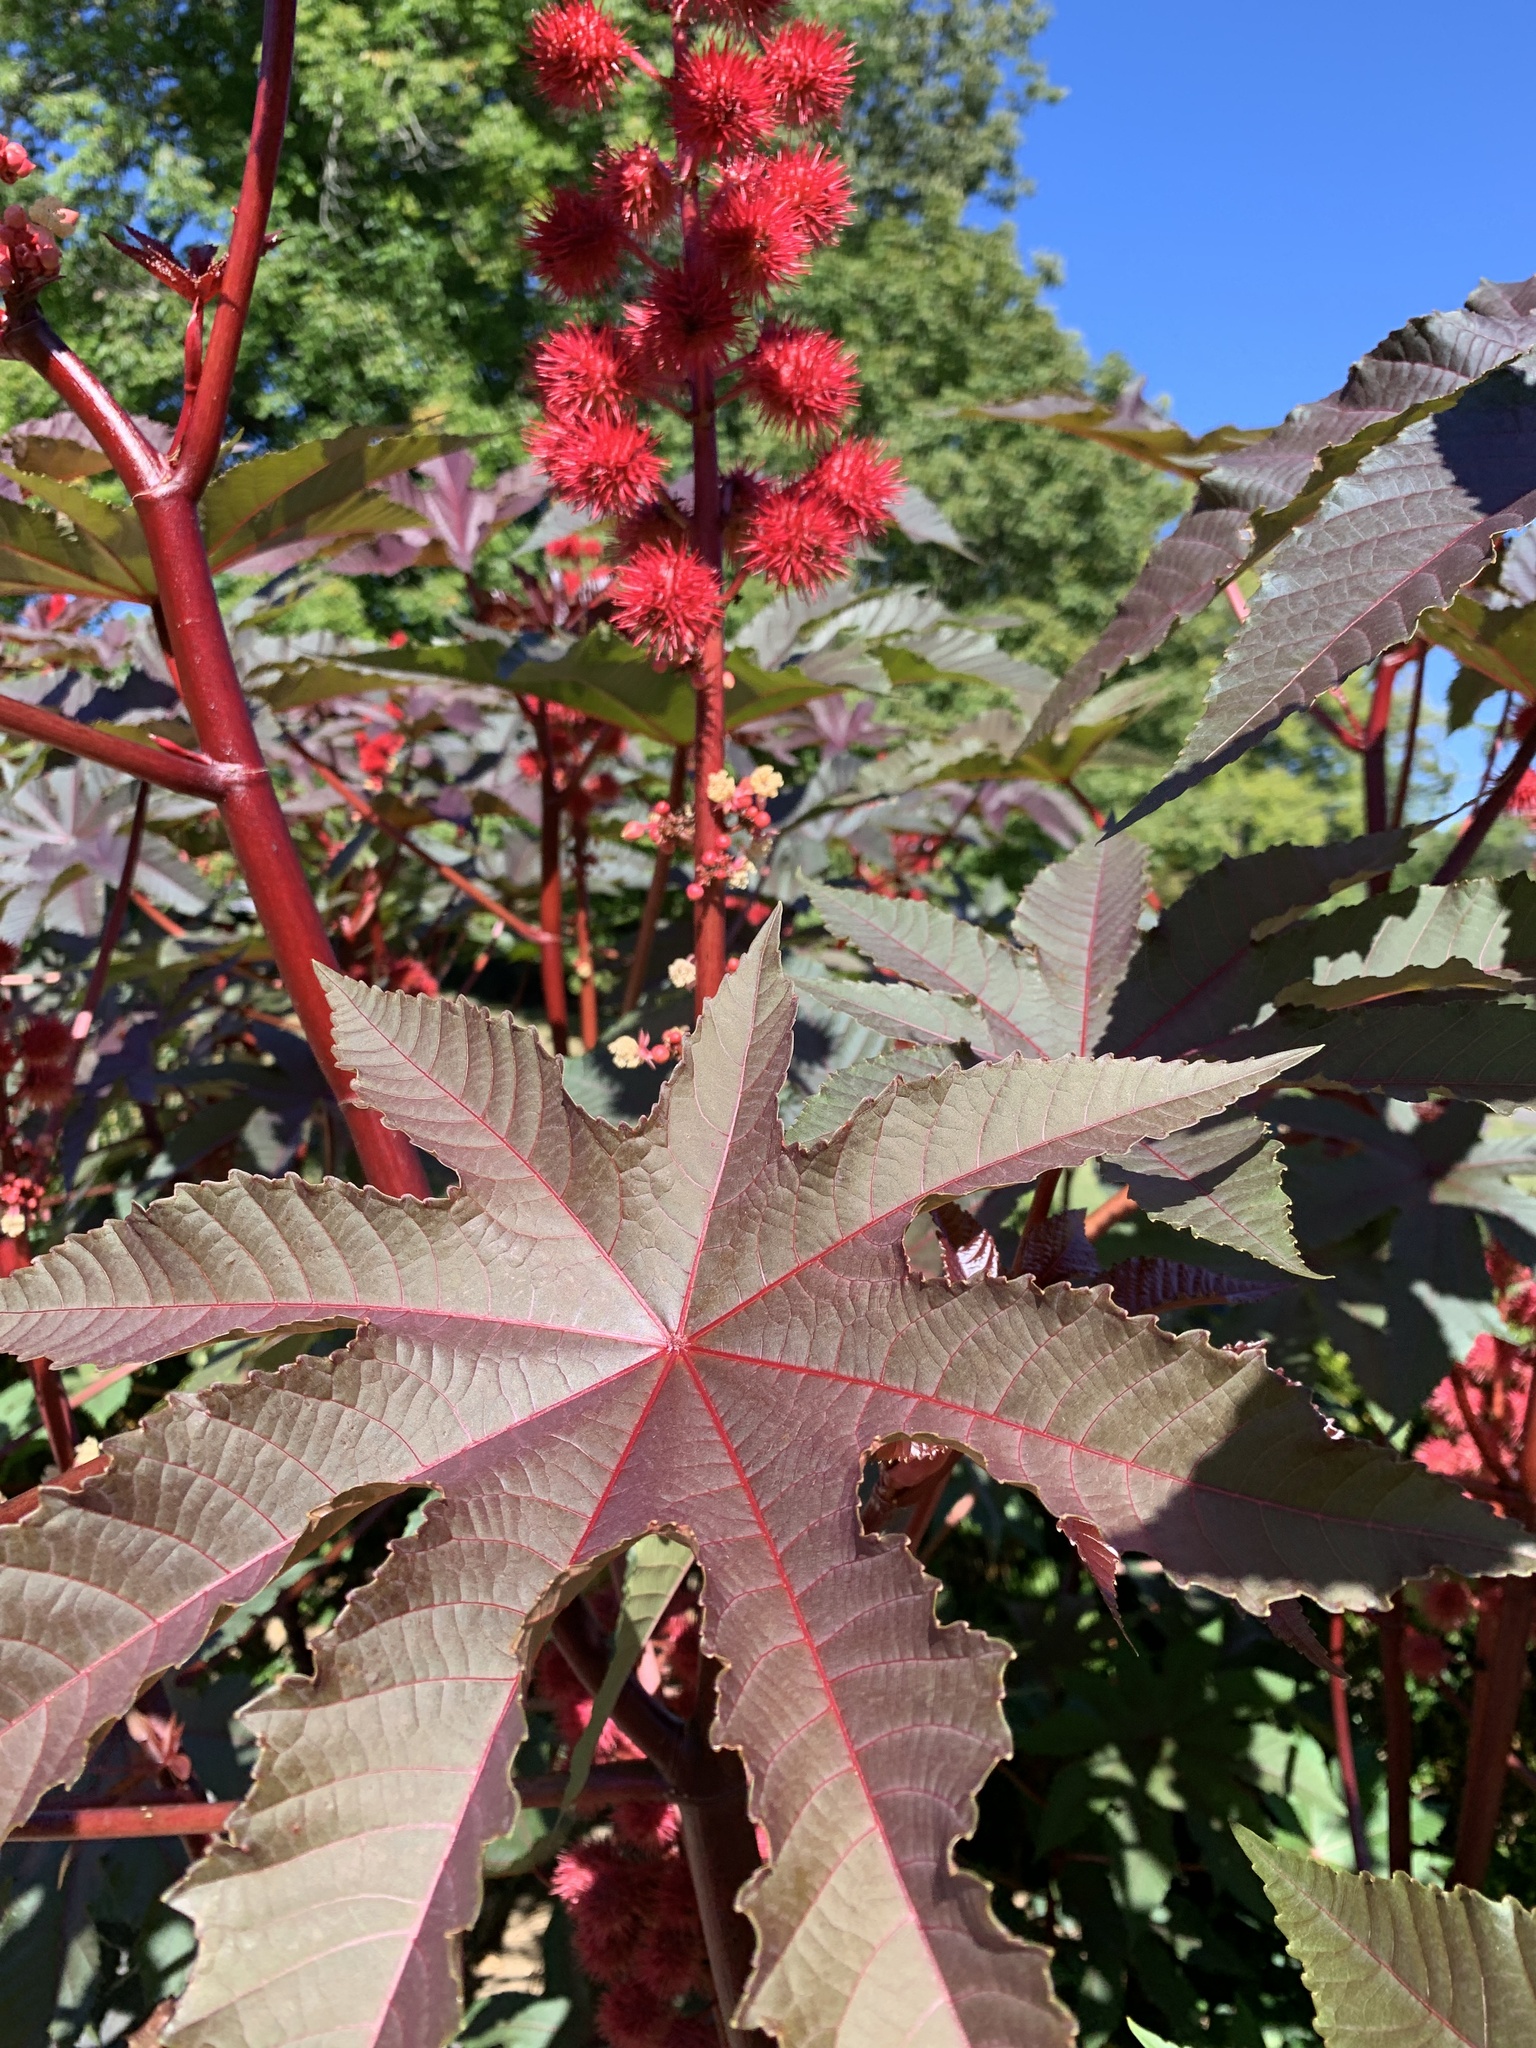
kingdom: Plantae
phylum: Tracheophyta
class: Magnoliopsida
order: Malpighiales
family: Euphorbiaceae
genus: Ricinus
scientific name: Ricinus communis
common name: Castor-oil-plant
